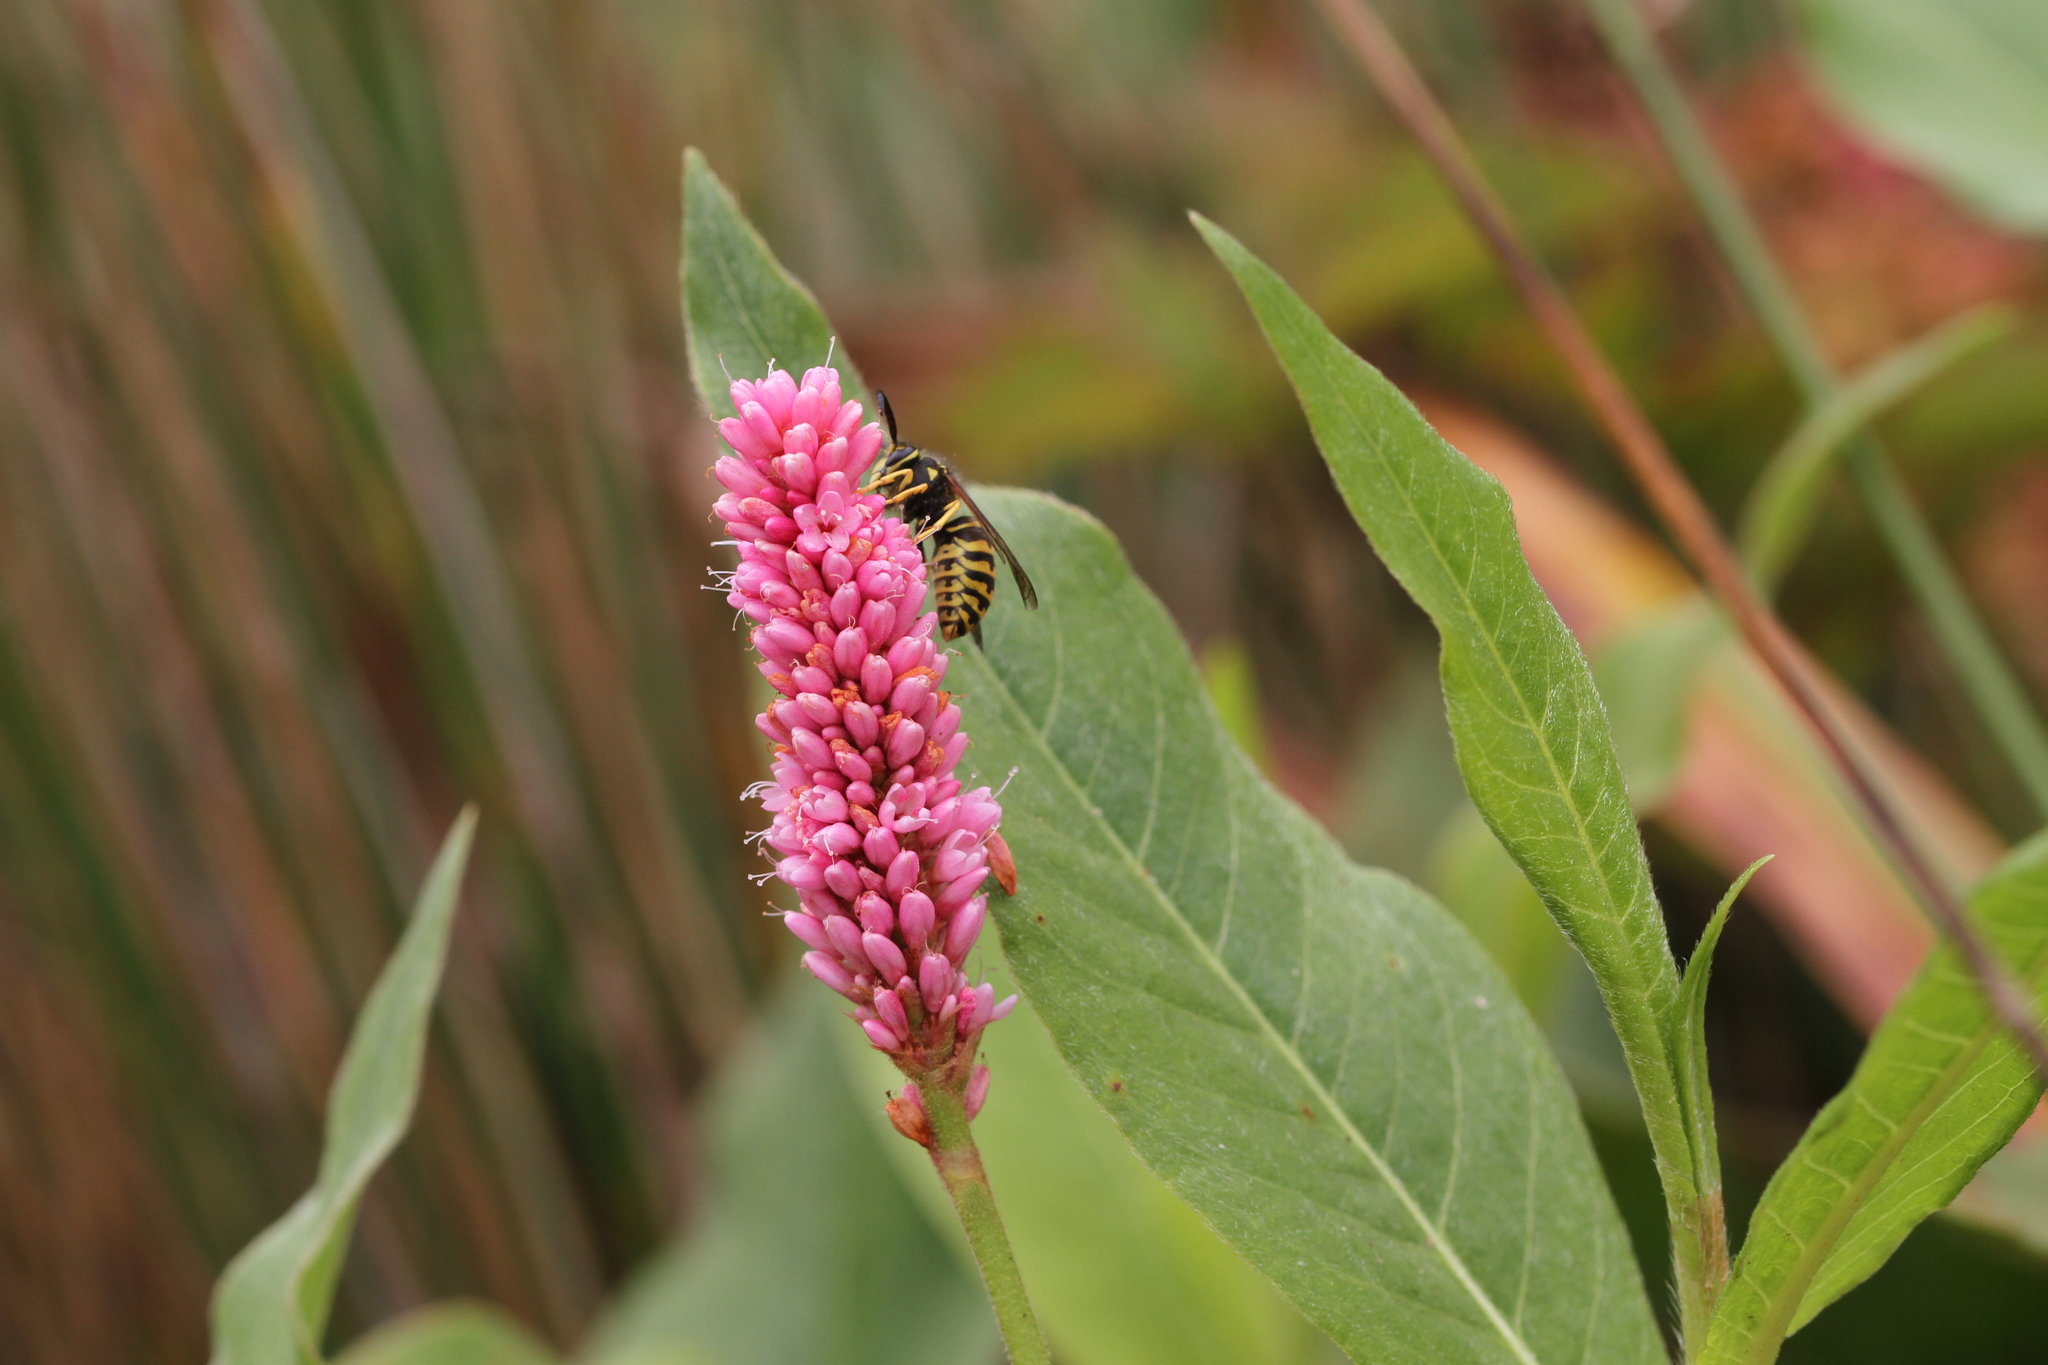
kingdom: Plantae
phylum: Tracheophyta
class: Magnoliopsida
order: Caryophyllales
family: Polygonaceae
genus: Persicaria
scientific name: Persicaria amphibia
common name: Amphibious bistort
